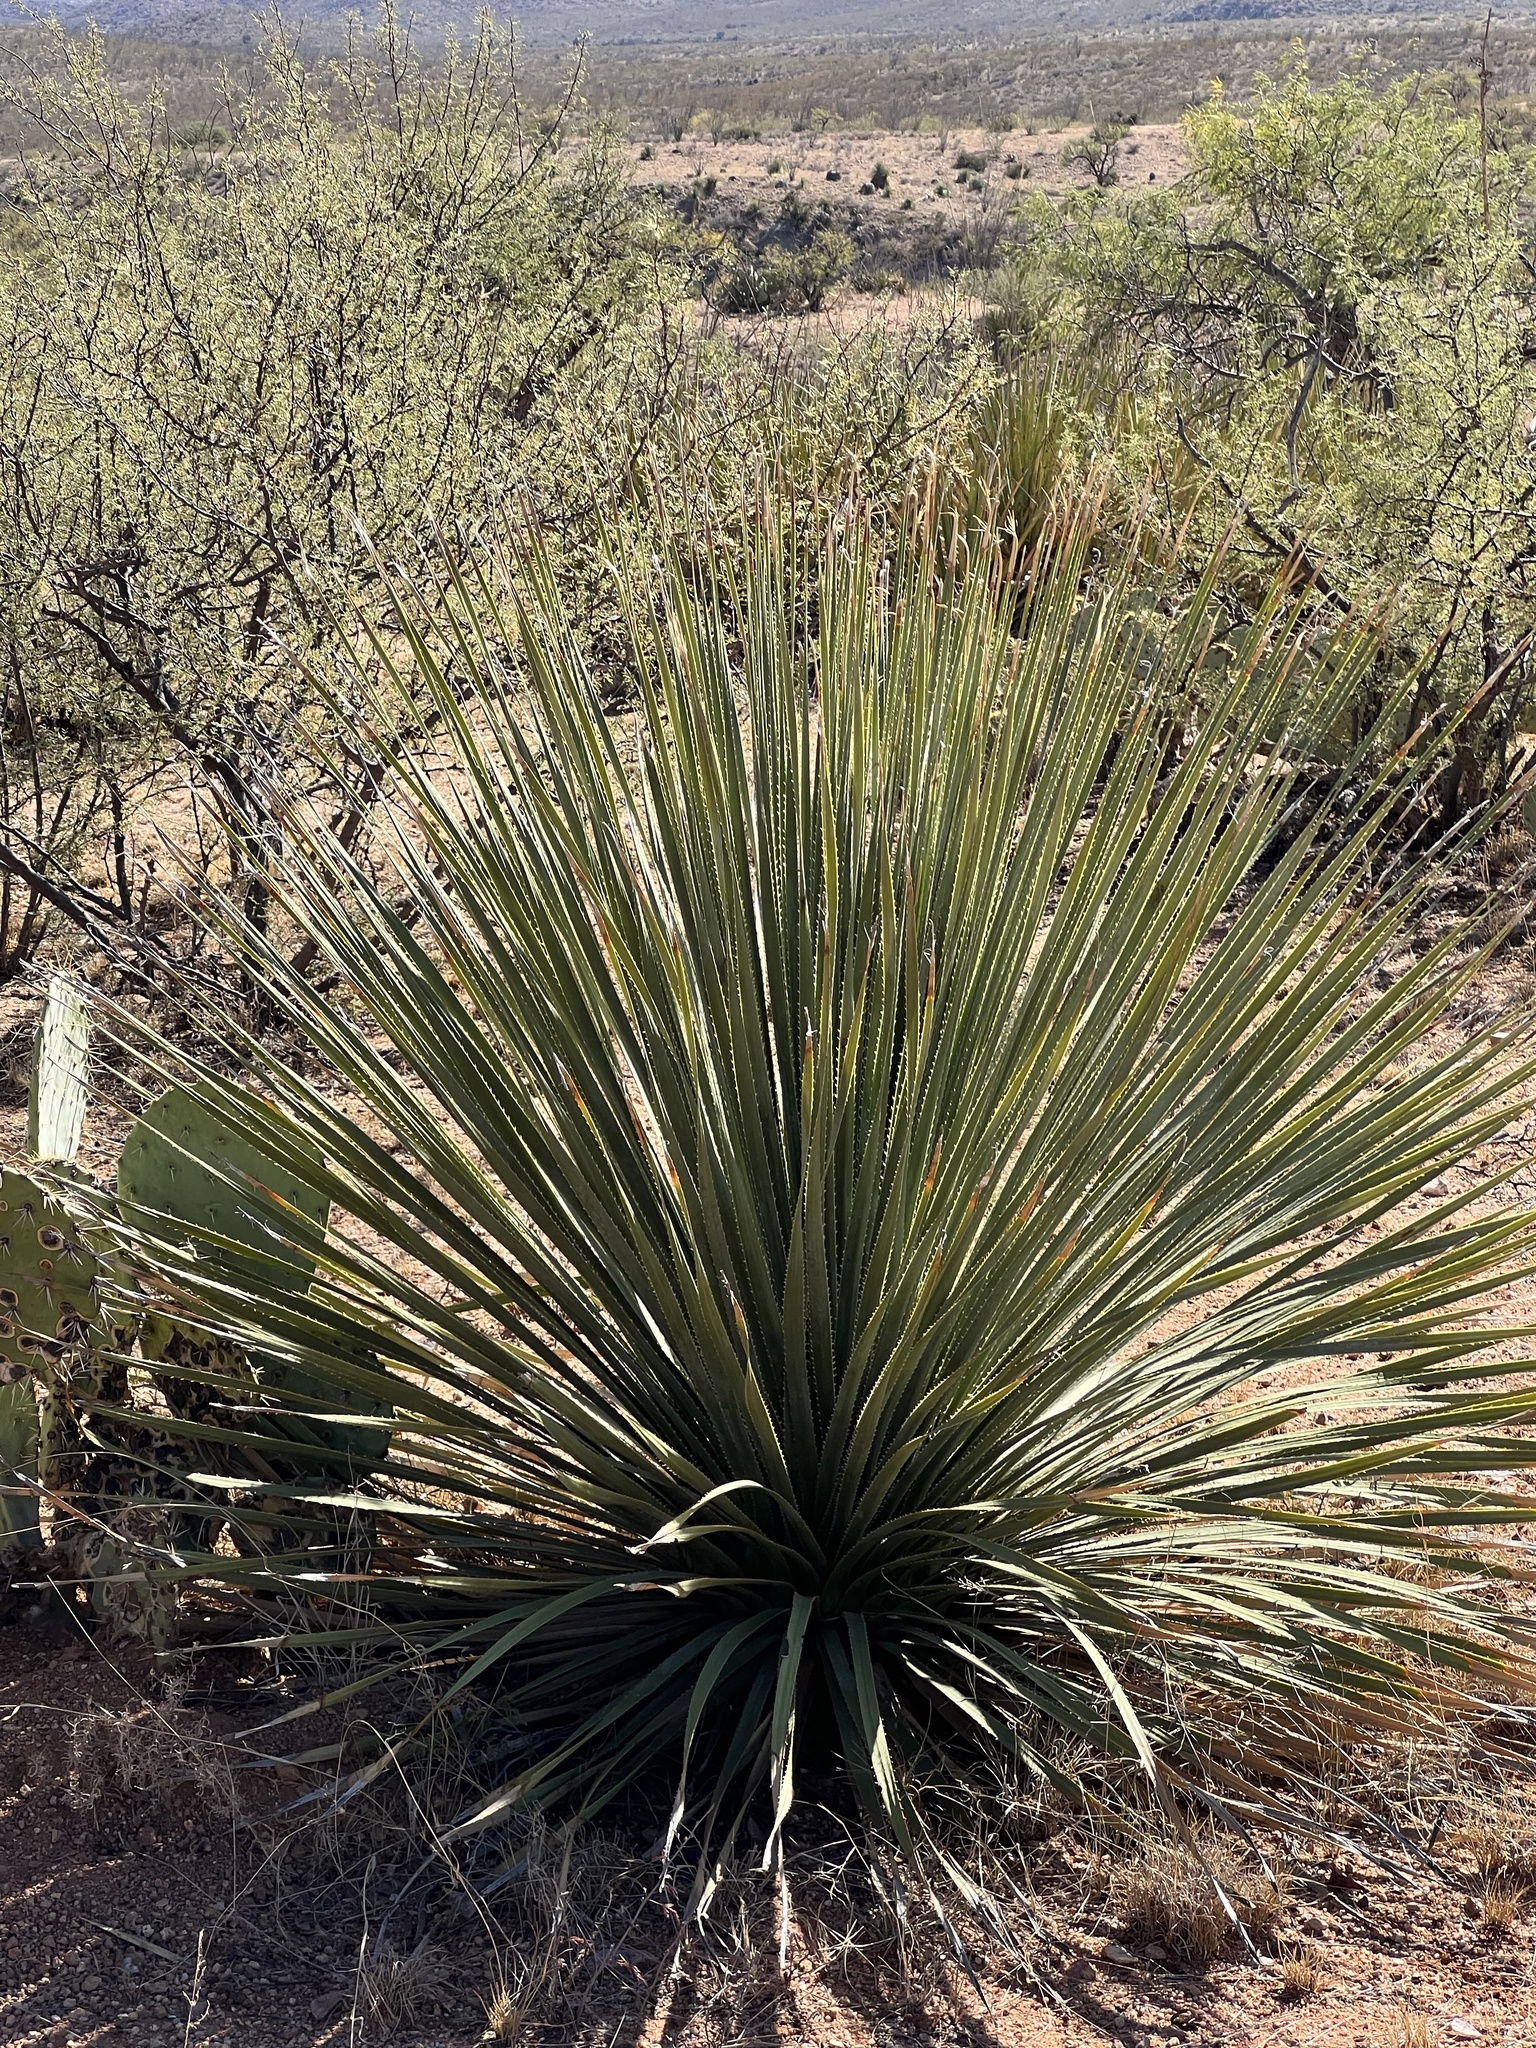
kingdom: Plantae
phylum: Tracheophyta
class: Liliopsida
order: Asparagales
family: Asparagaceae
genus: Dasylirion
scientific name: Dasylirion wheeleri
